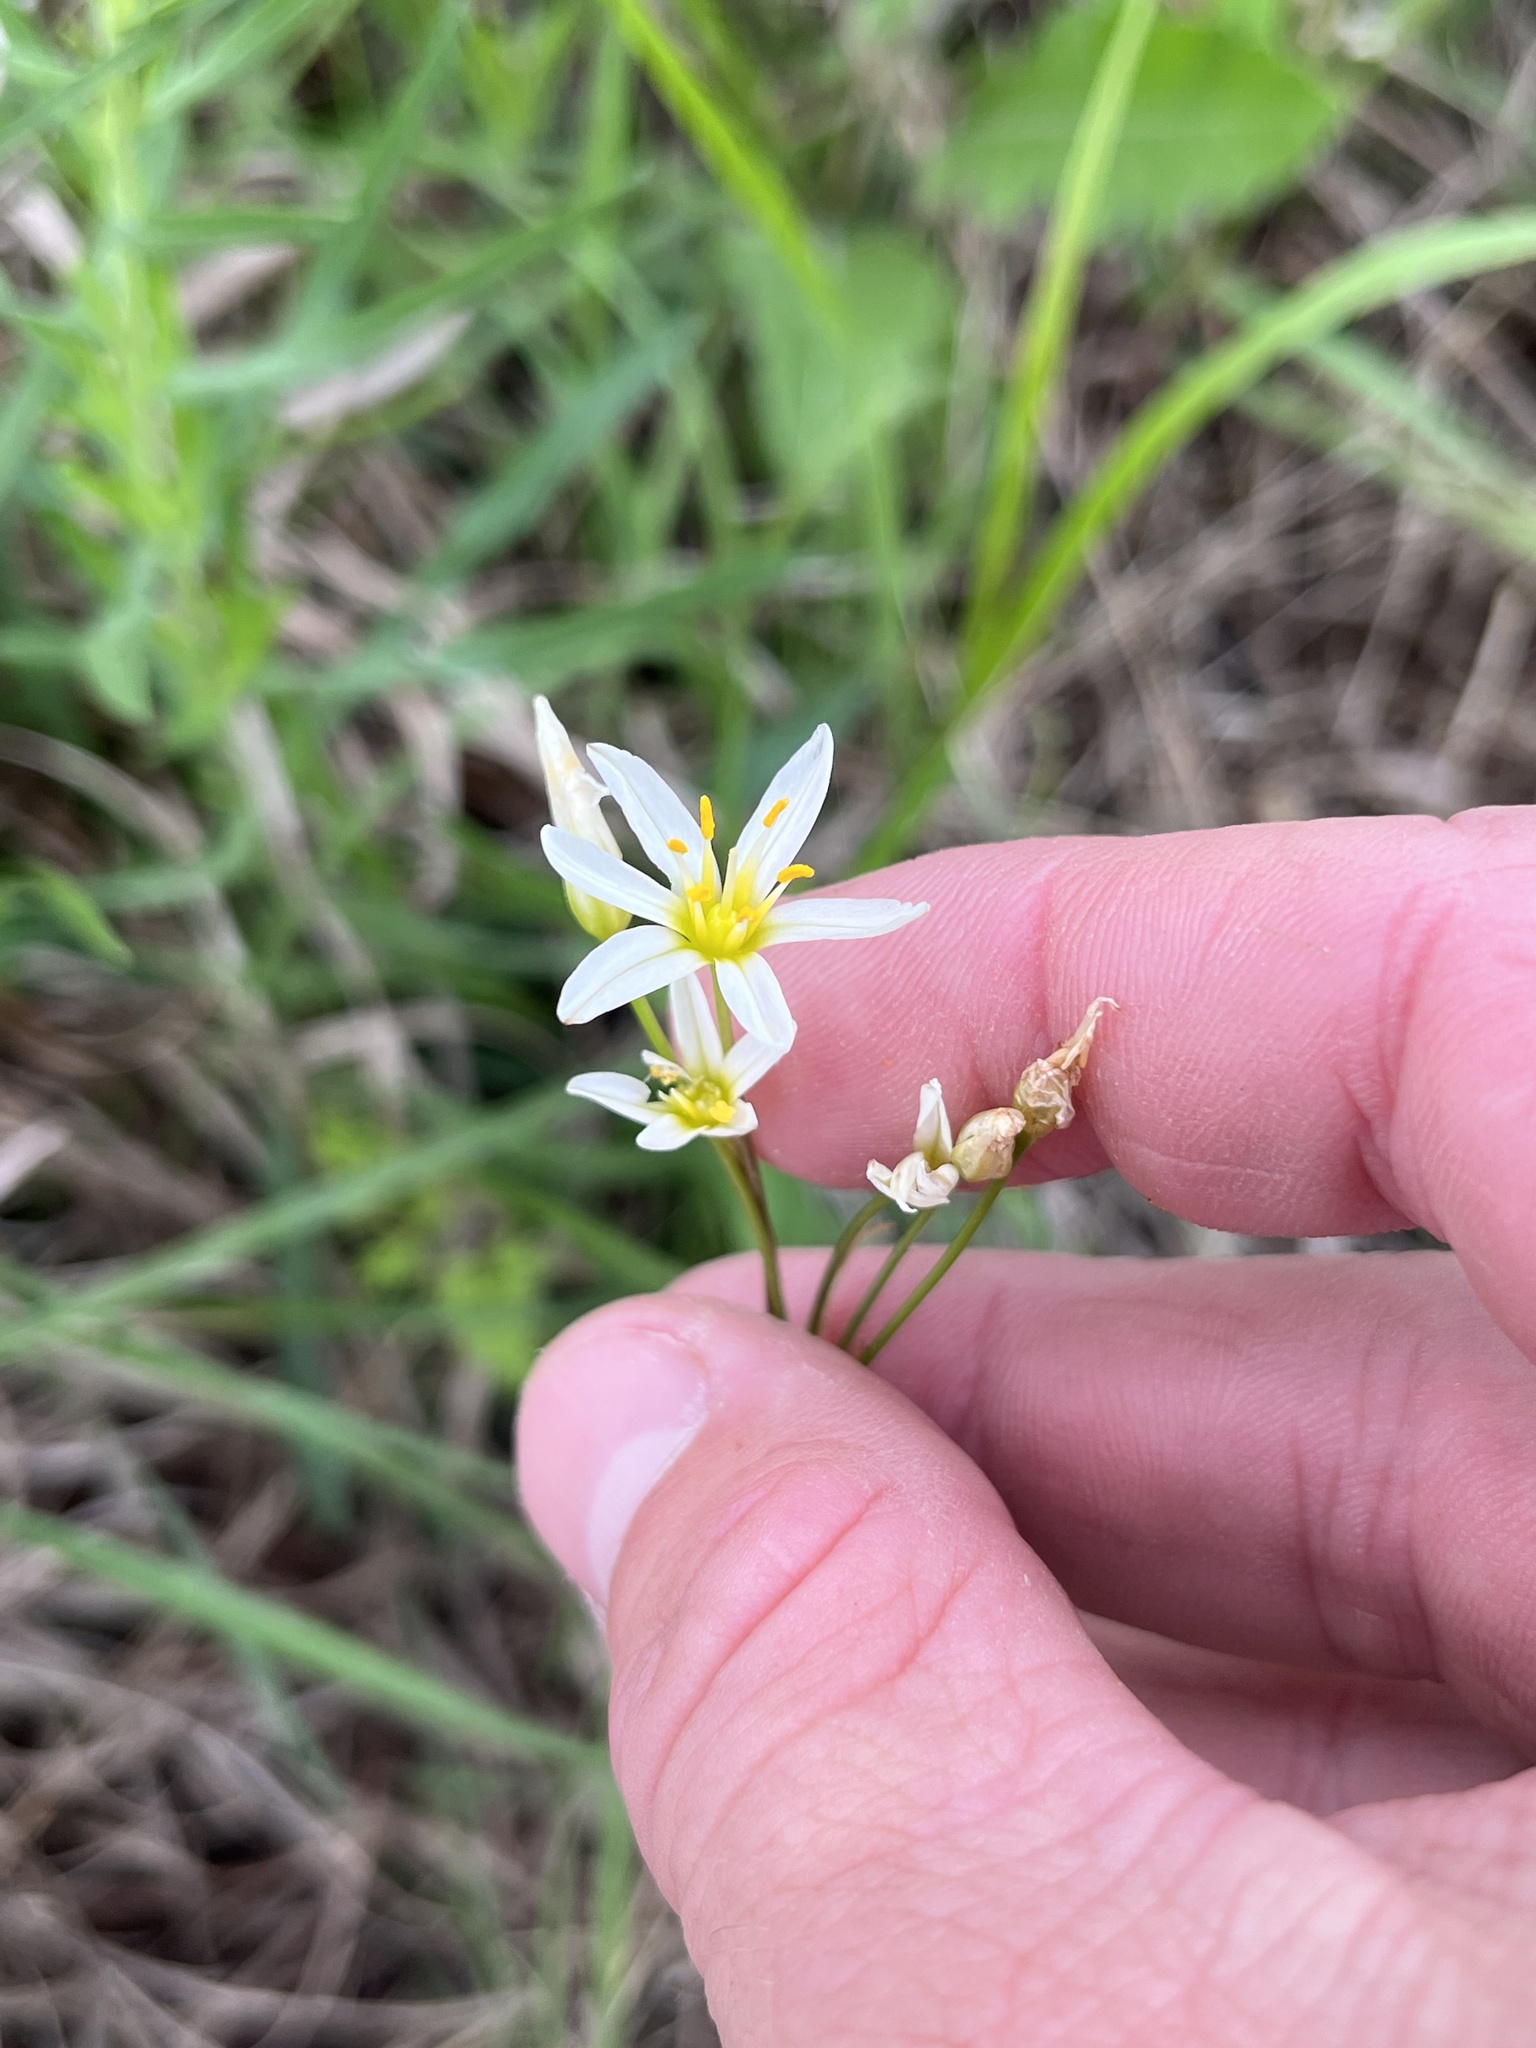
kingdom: Plantae
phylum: Tracheophyta
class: Liliopsida
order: Asparagales
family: Amaryllidaceae
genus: Nothoscordum
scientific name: Nothoscordum bivalve
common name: Crow-poison
